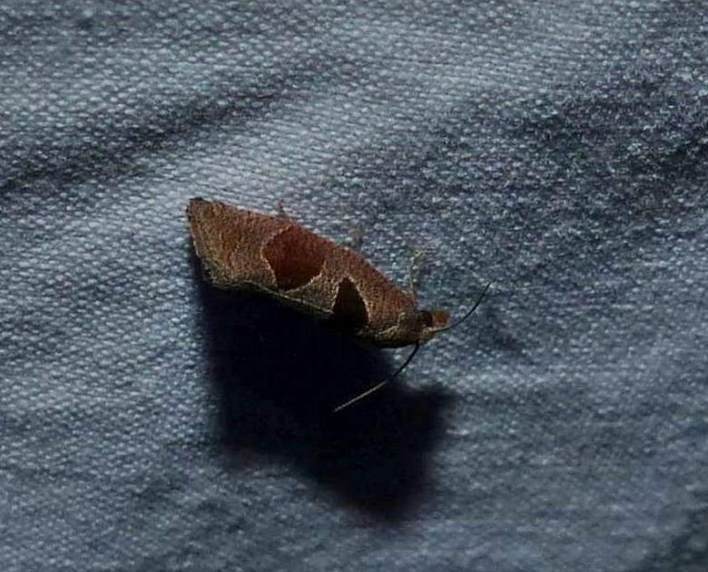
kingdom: Animalia
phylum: Arthropoda
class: Insecta
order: Lepidoptera
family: Tortricidae
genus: Pelochrista
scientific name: Pelochrista dorsisignatana
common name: Triangle-backed pelochrista moth
